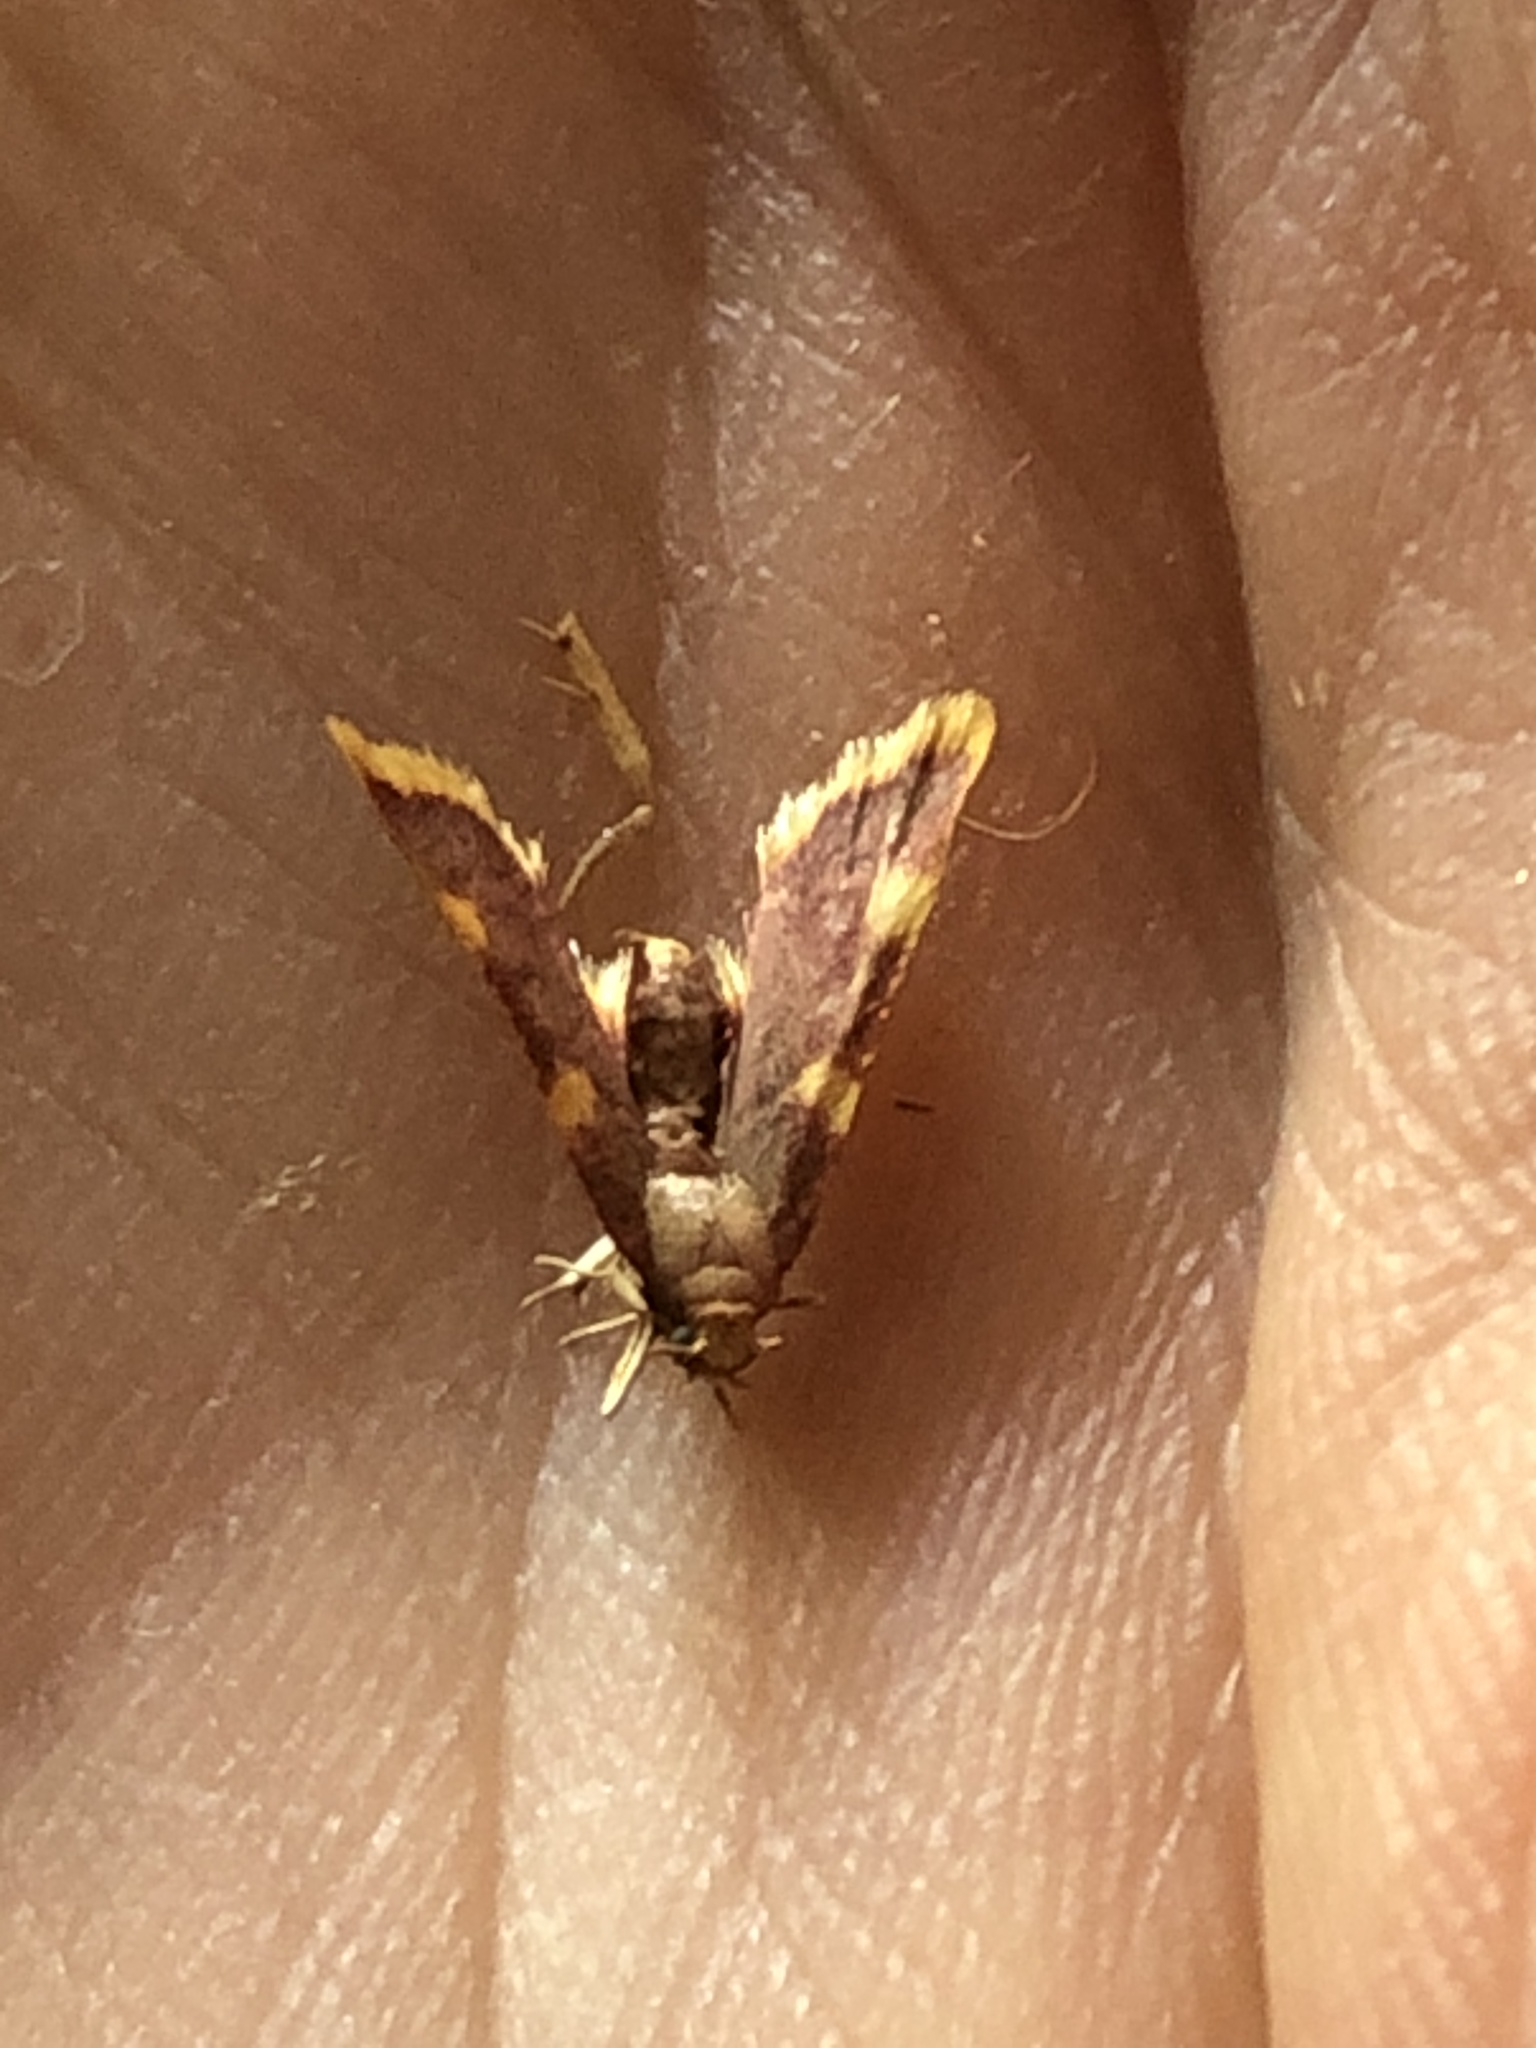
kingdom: Animalia
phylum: Arthropoda
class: Insecta
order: Lepidoptera
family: Pyralidae
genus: Hypsopygia
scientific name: Hypsopygia costalis
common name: Gold triangle
